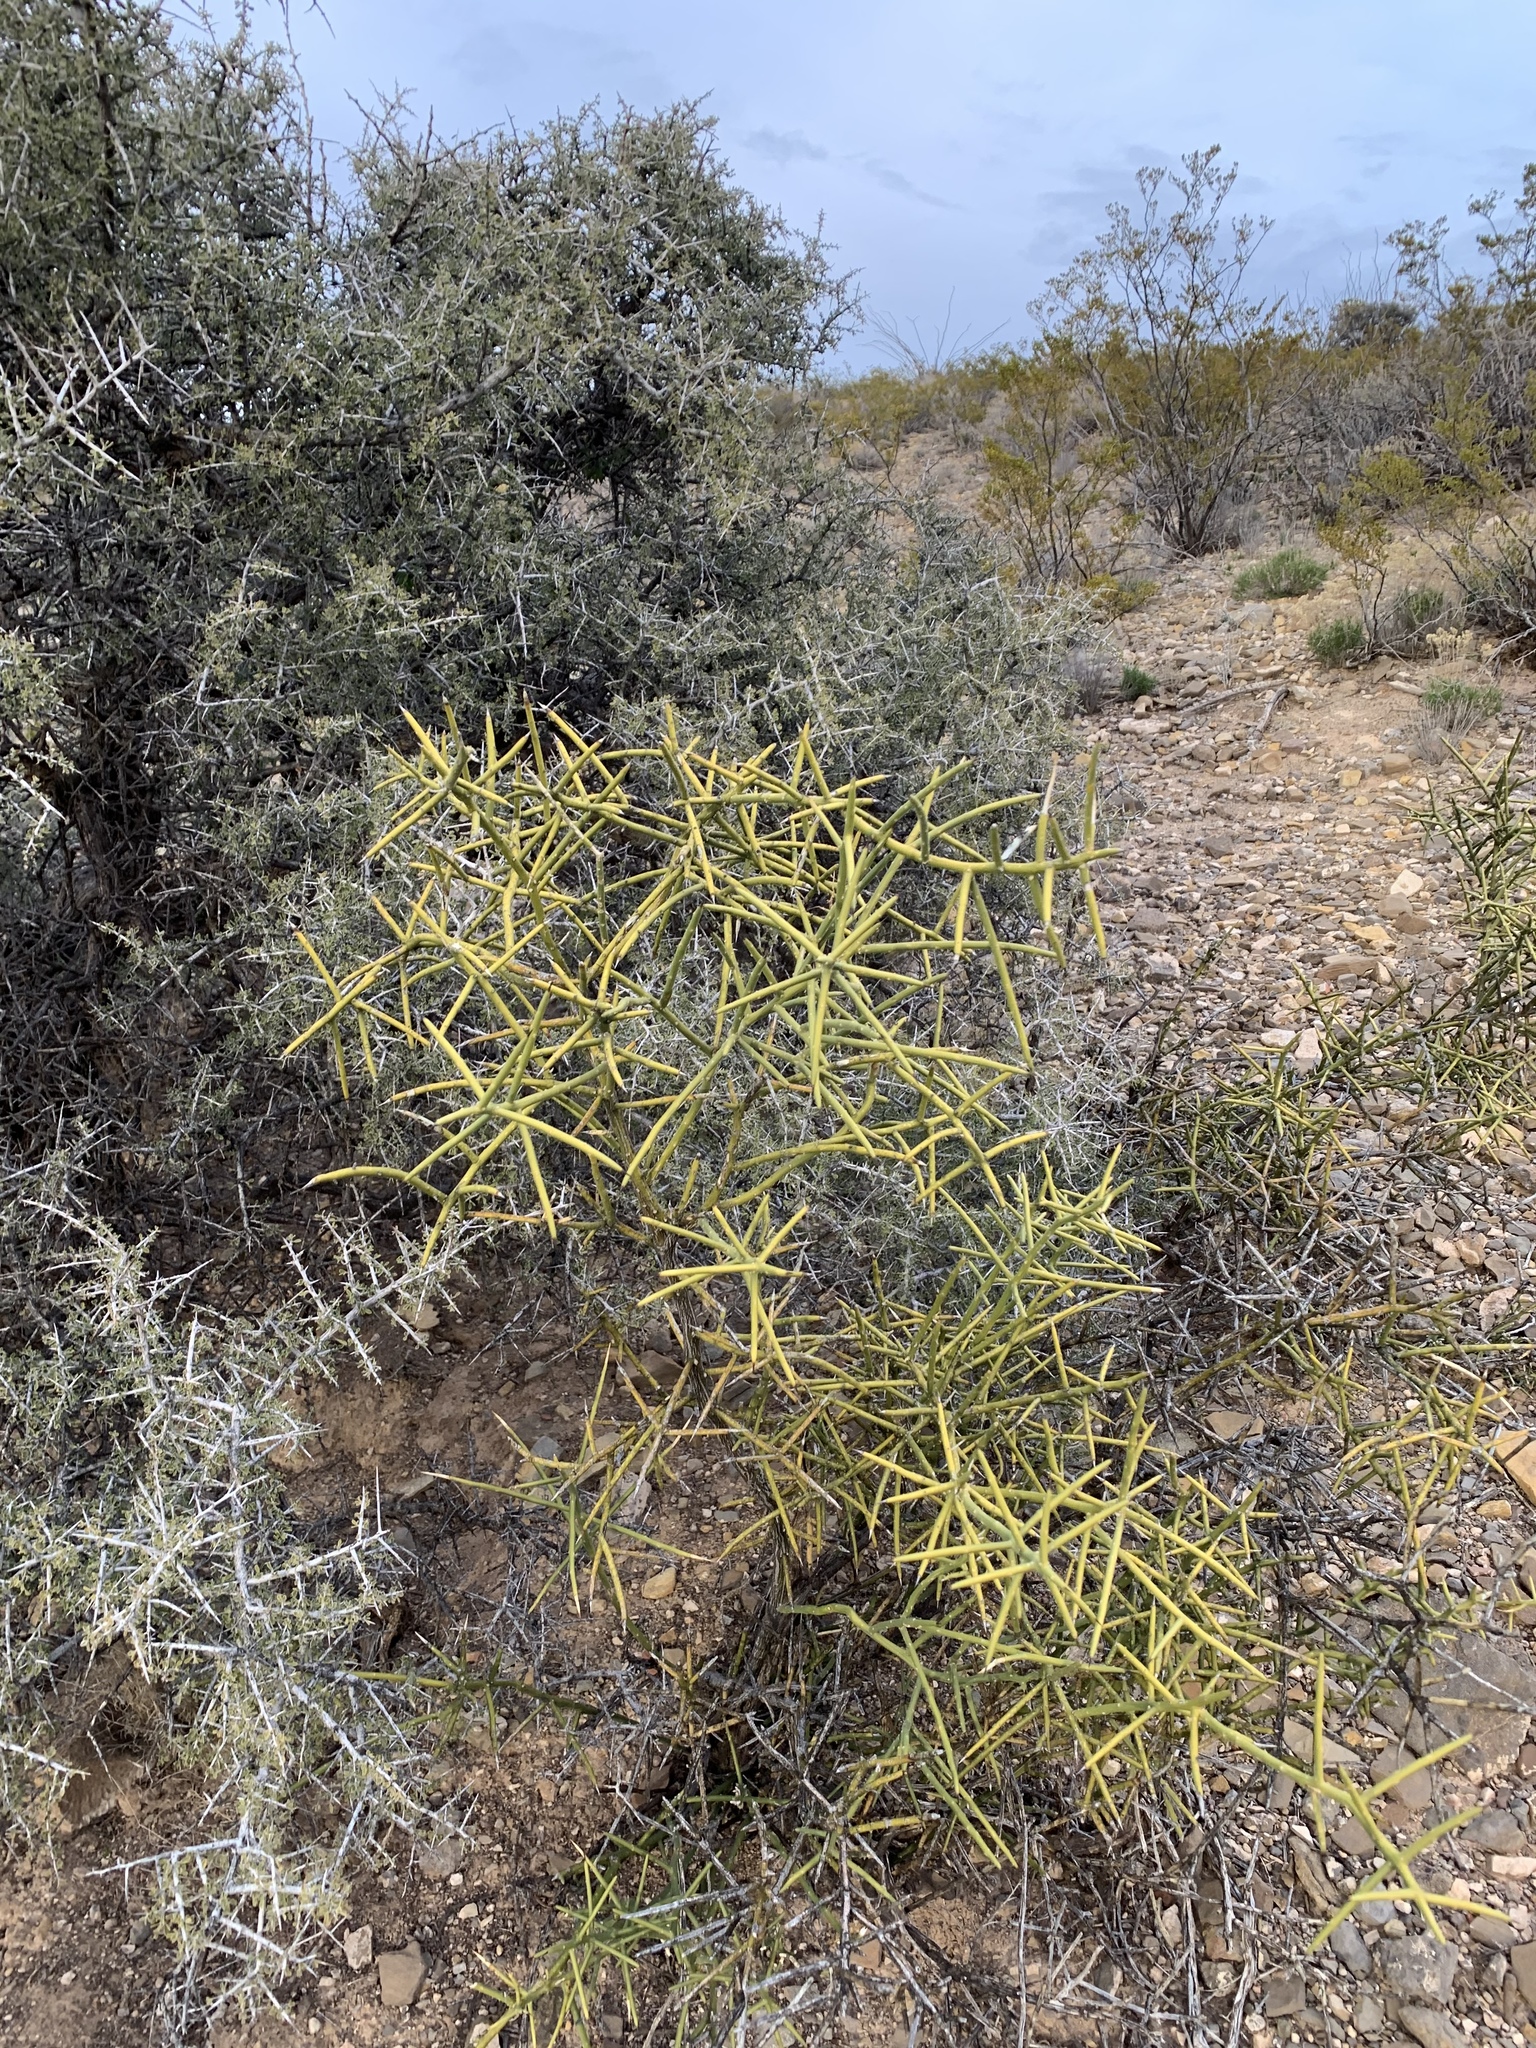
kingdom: Plantae
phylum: Tracheophyta
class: Magnoliopsida
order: Brassicales
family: Koeberliniaceae
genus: Koeberlinia
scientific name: Koeberlinia spinosa
